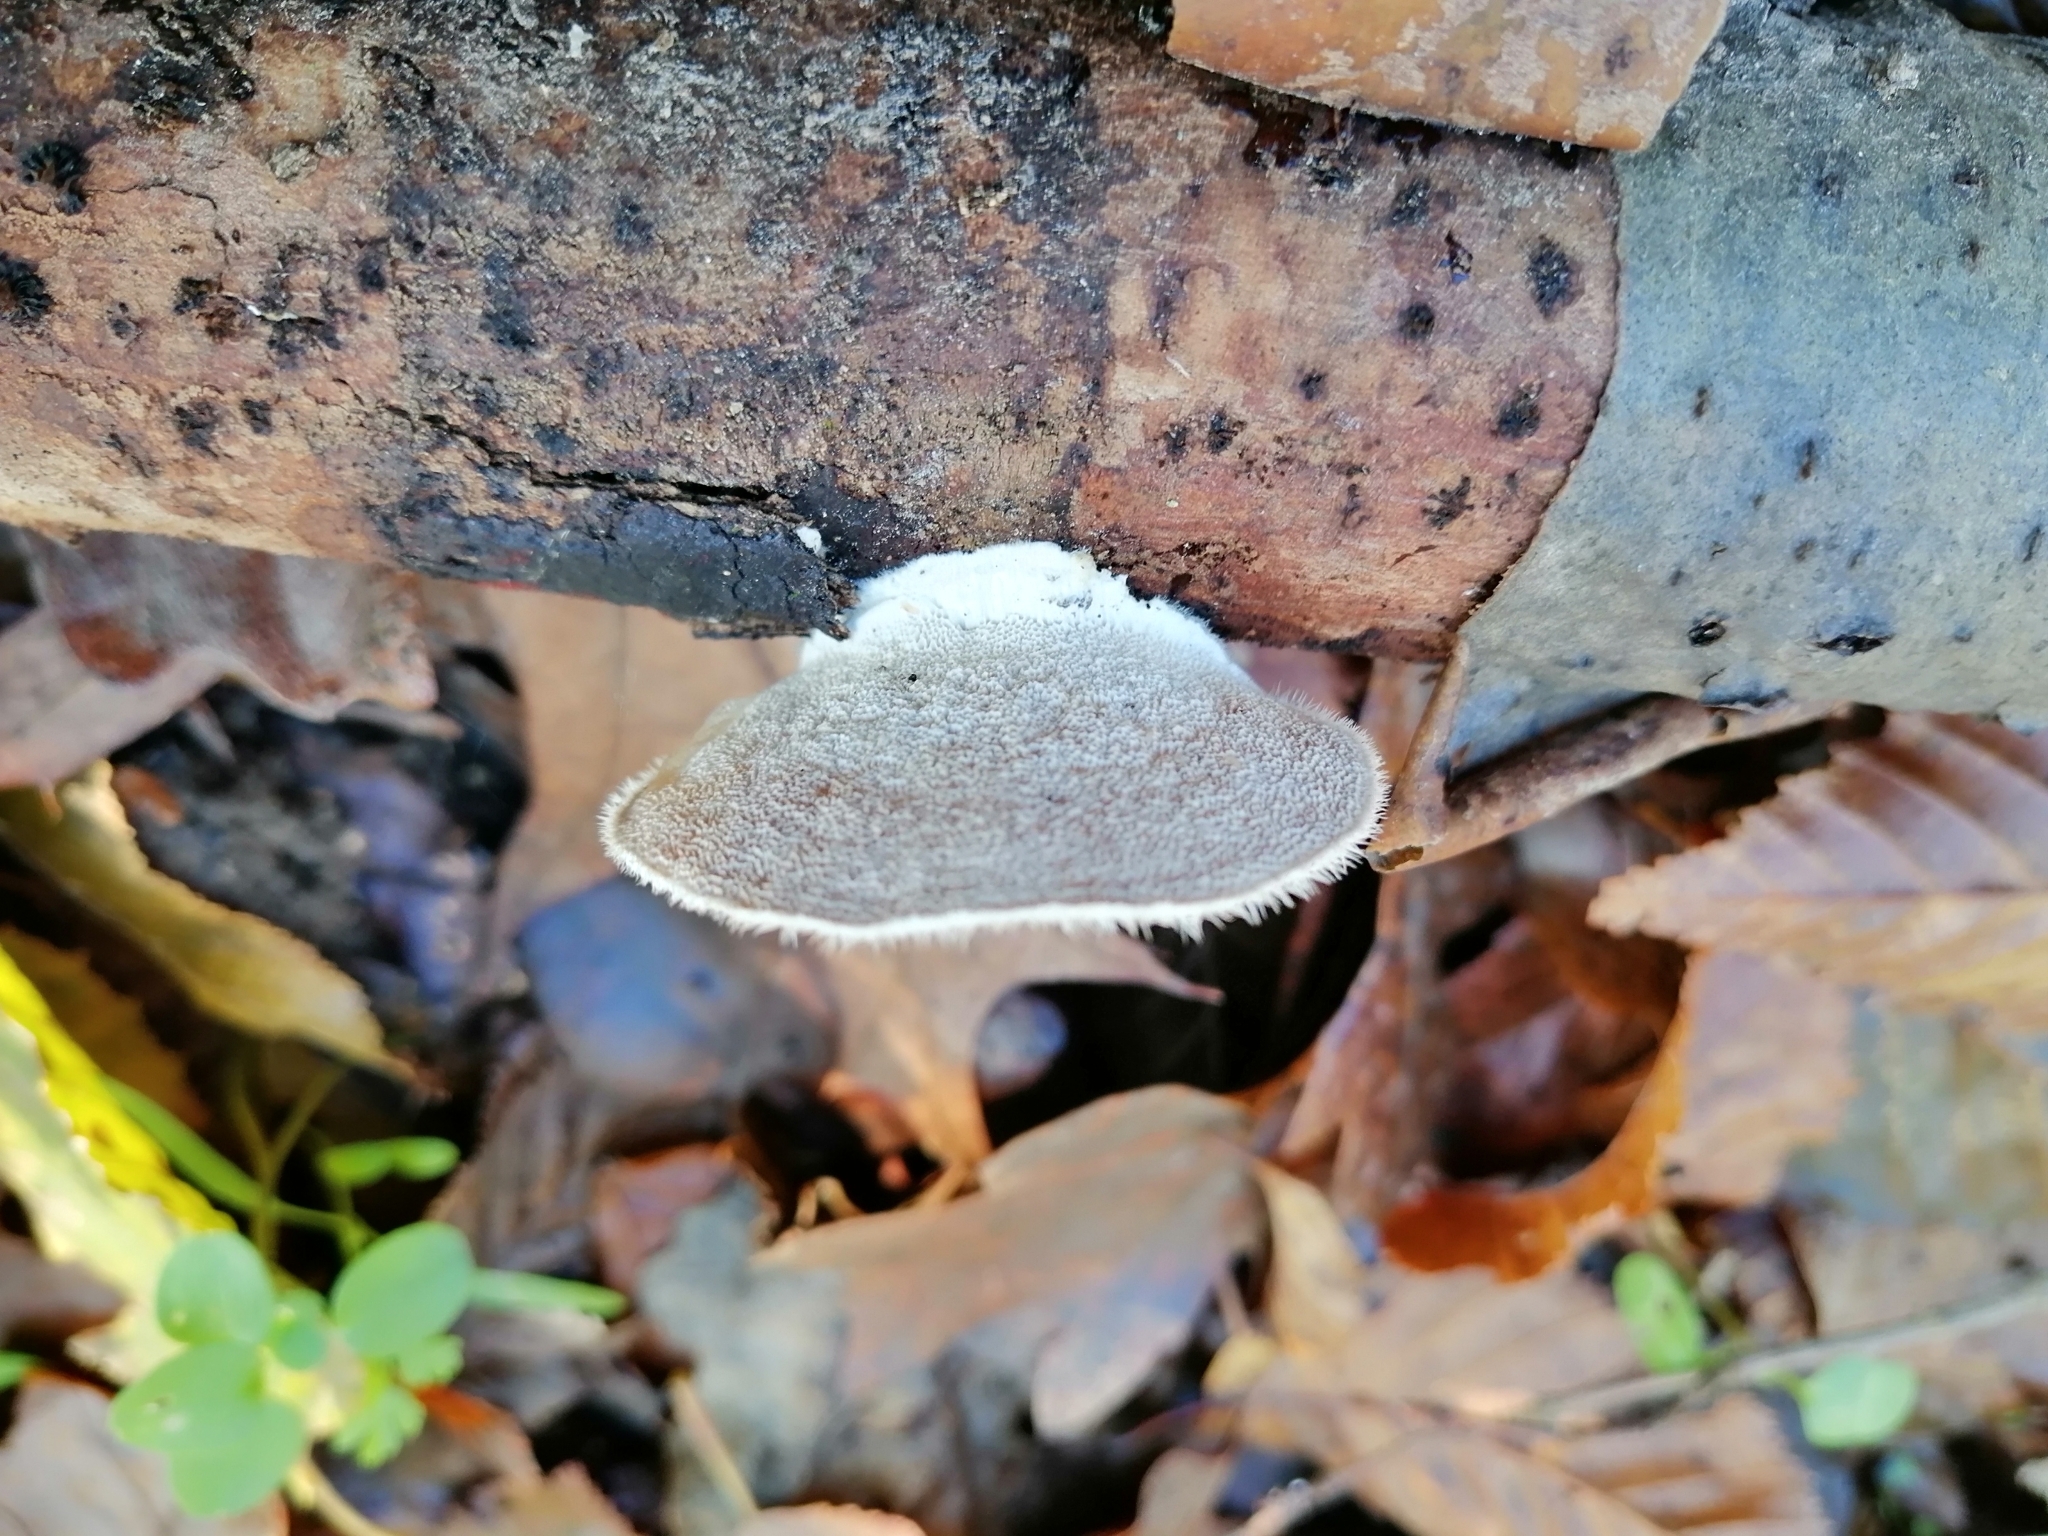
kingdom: Fungi
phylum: Basidiomycota
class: Agaricomycetes
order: Polyporales
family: Polyporaceae
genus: Trametes
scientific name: Trametes hirsuta
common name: Hairy bracket
